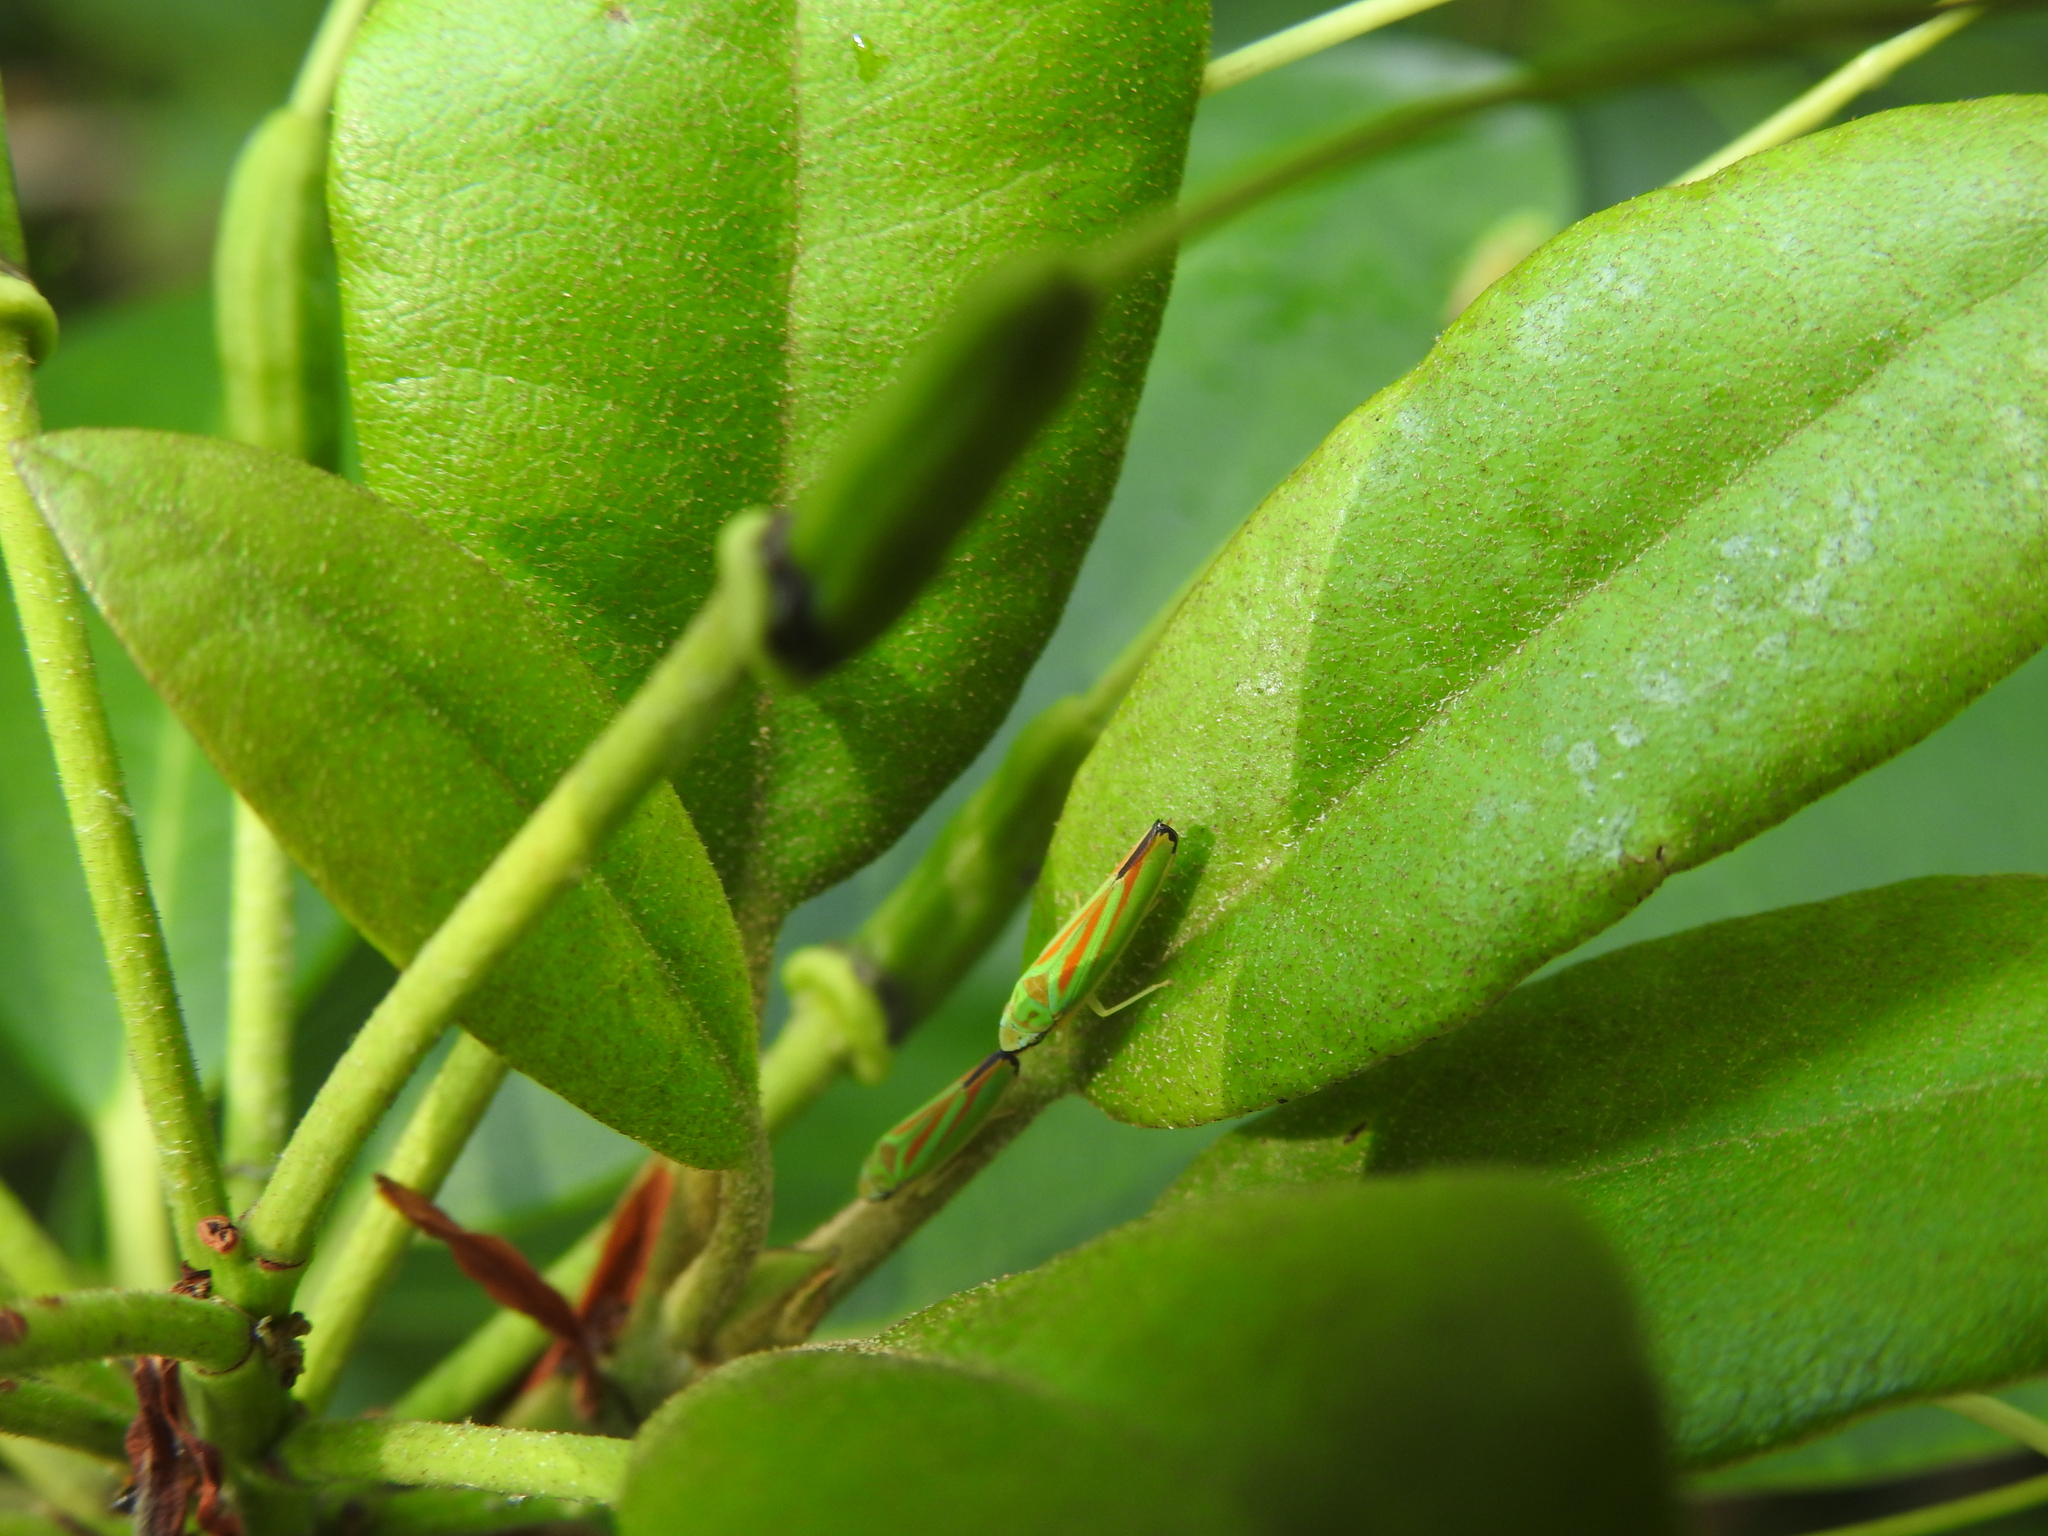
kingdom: Animalia
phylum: Arthropoda
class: Insecta
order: Hemiptera
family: Cicadellidae
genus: Graphocephala
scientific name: Graphocephala fennahi
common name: Rhododendron leafhopper
